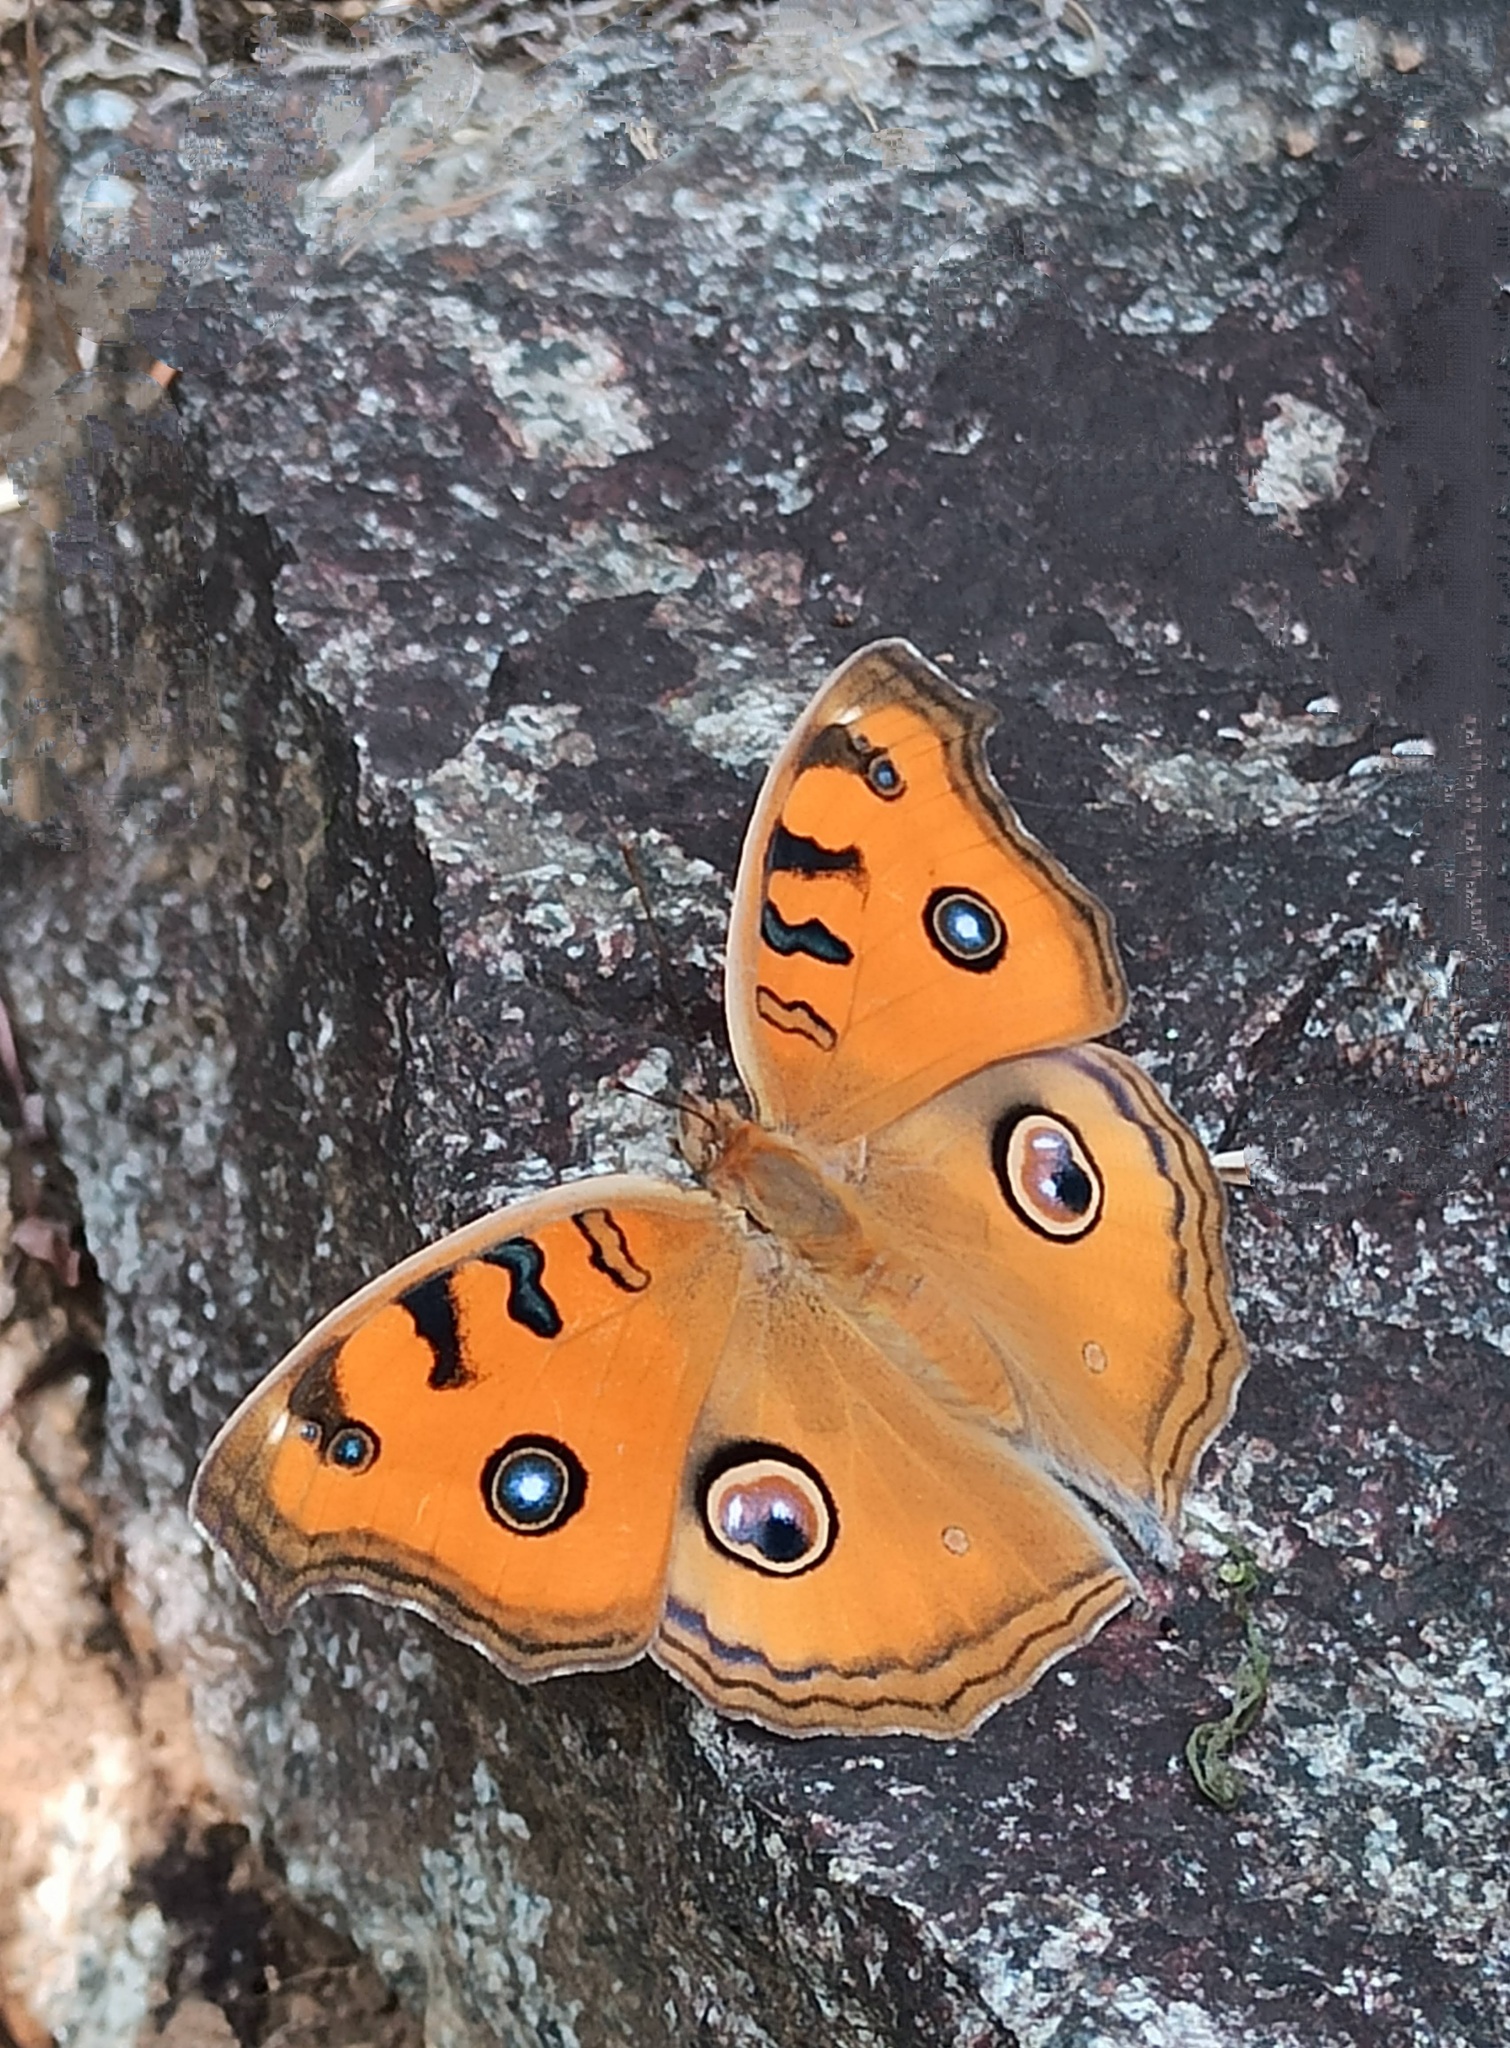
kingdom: Animalia
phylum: Arthropoda
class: Insecta
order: Lepidoptera
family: Nymphalidae
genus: Junonia
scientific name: Junonia almana
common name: Peacock pansy
